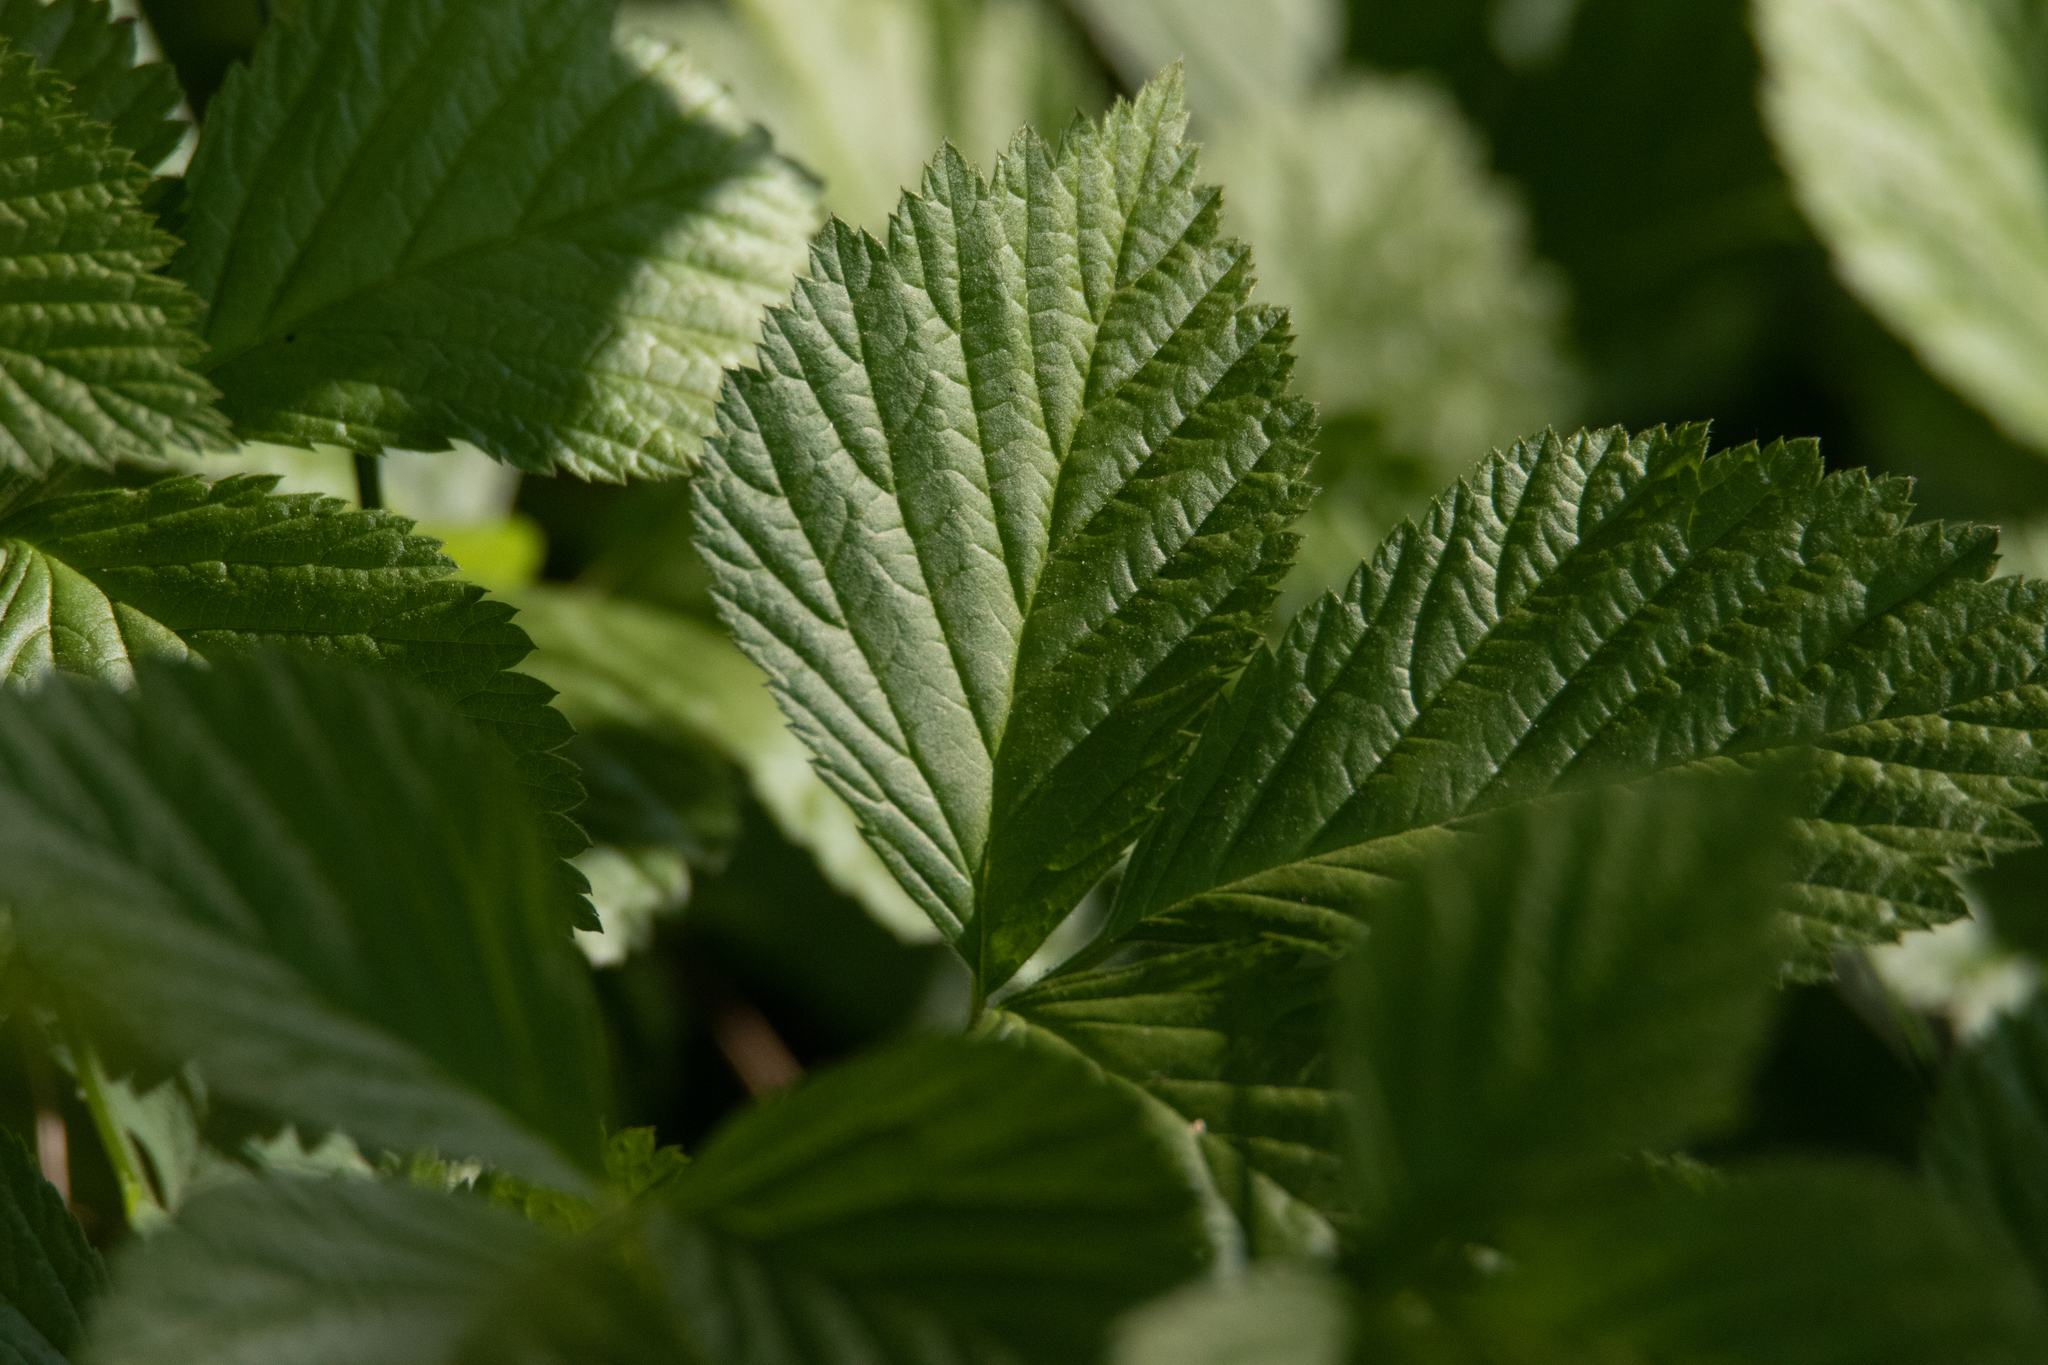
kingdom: Plantae
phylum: Tracheophyta
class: Magnoliopsida
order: Rosales
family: Rosaceae
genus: Rubus
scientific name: Rubus saxatilis
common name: Stone bramble
